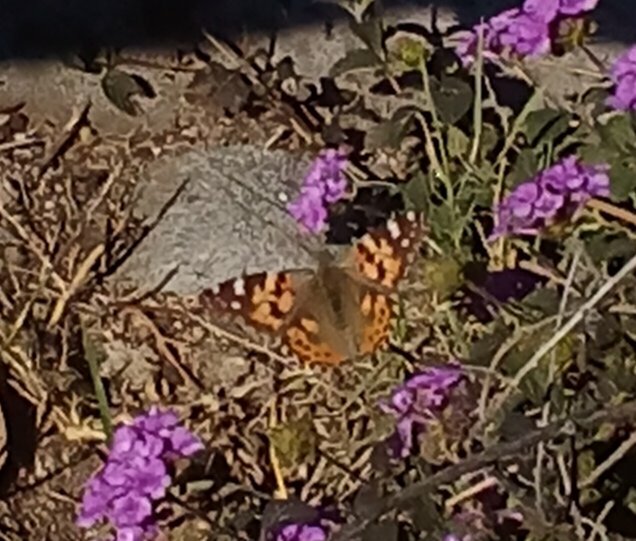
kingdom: Animalia
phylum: Arthropoda
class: Insecta
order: Lepidoptera
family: Nymphalidae
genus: Vanessa
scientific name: Vanessa cardui
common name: Painted lady
